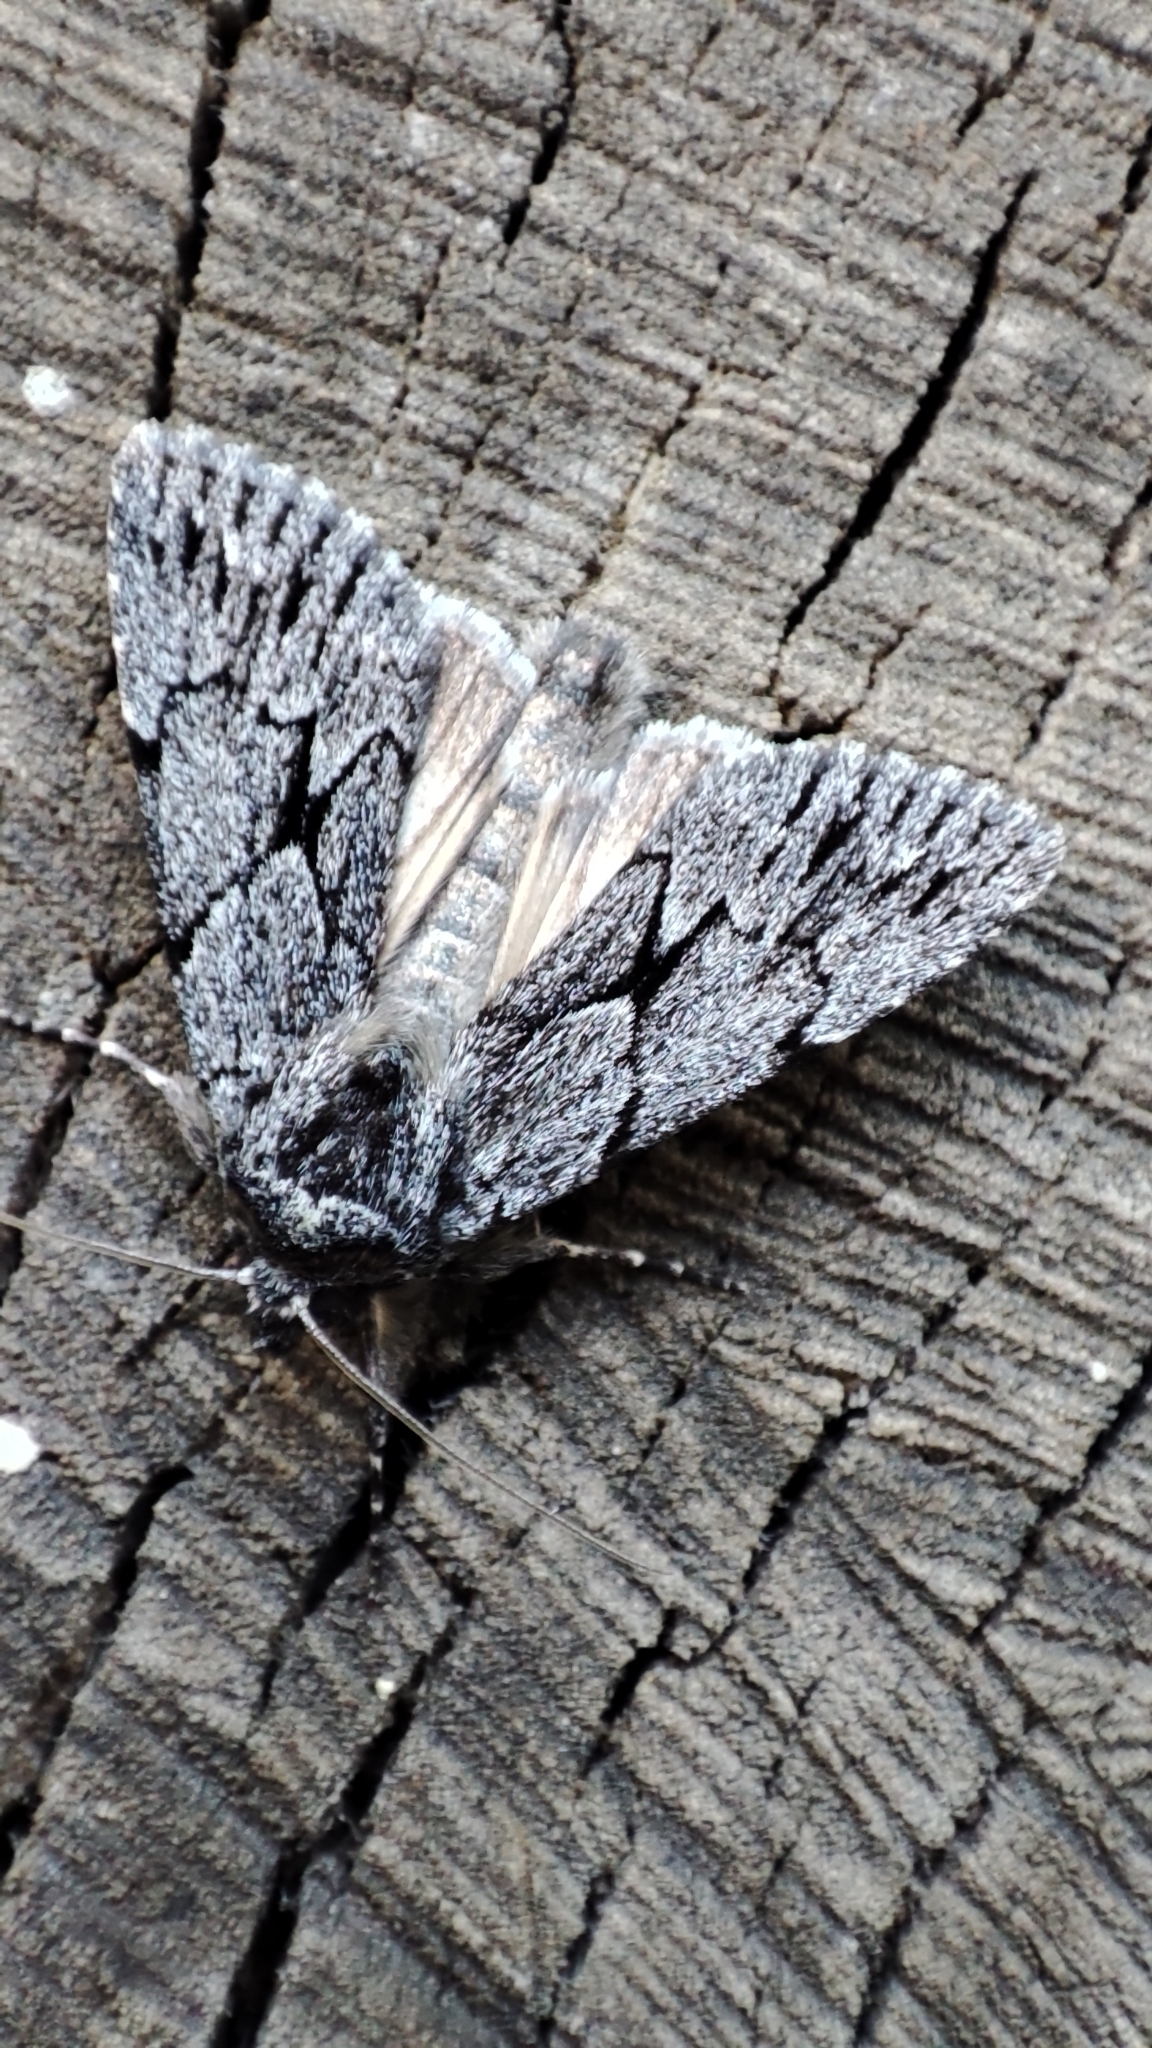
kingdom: Animalia
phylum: Arthropoda
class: Insecta
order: Lepidoptera
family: Noctuidae
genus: Sympistis
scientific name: Sympistis senica
